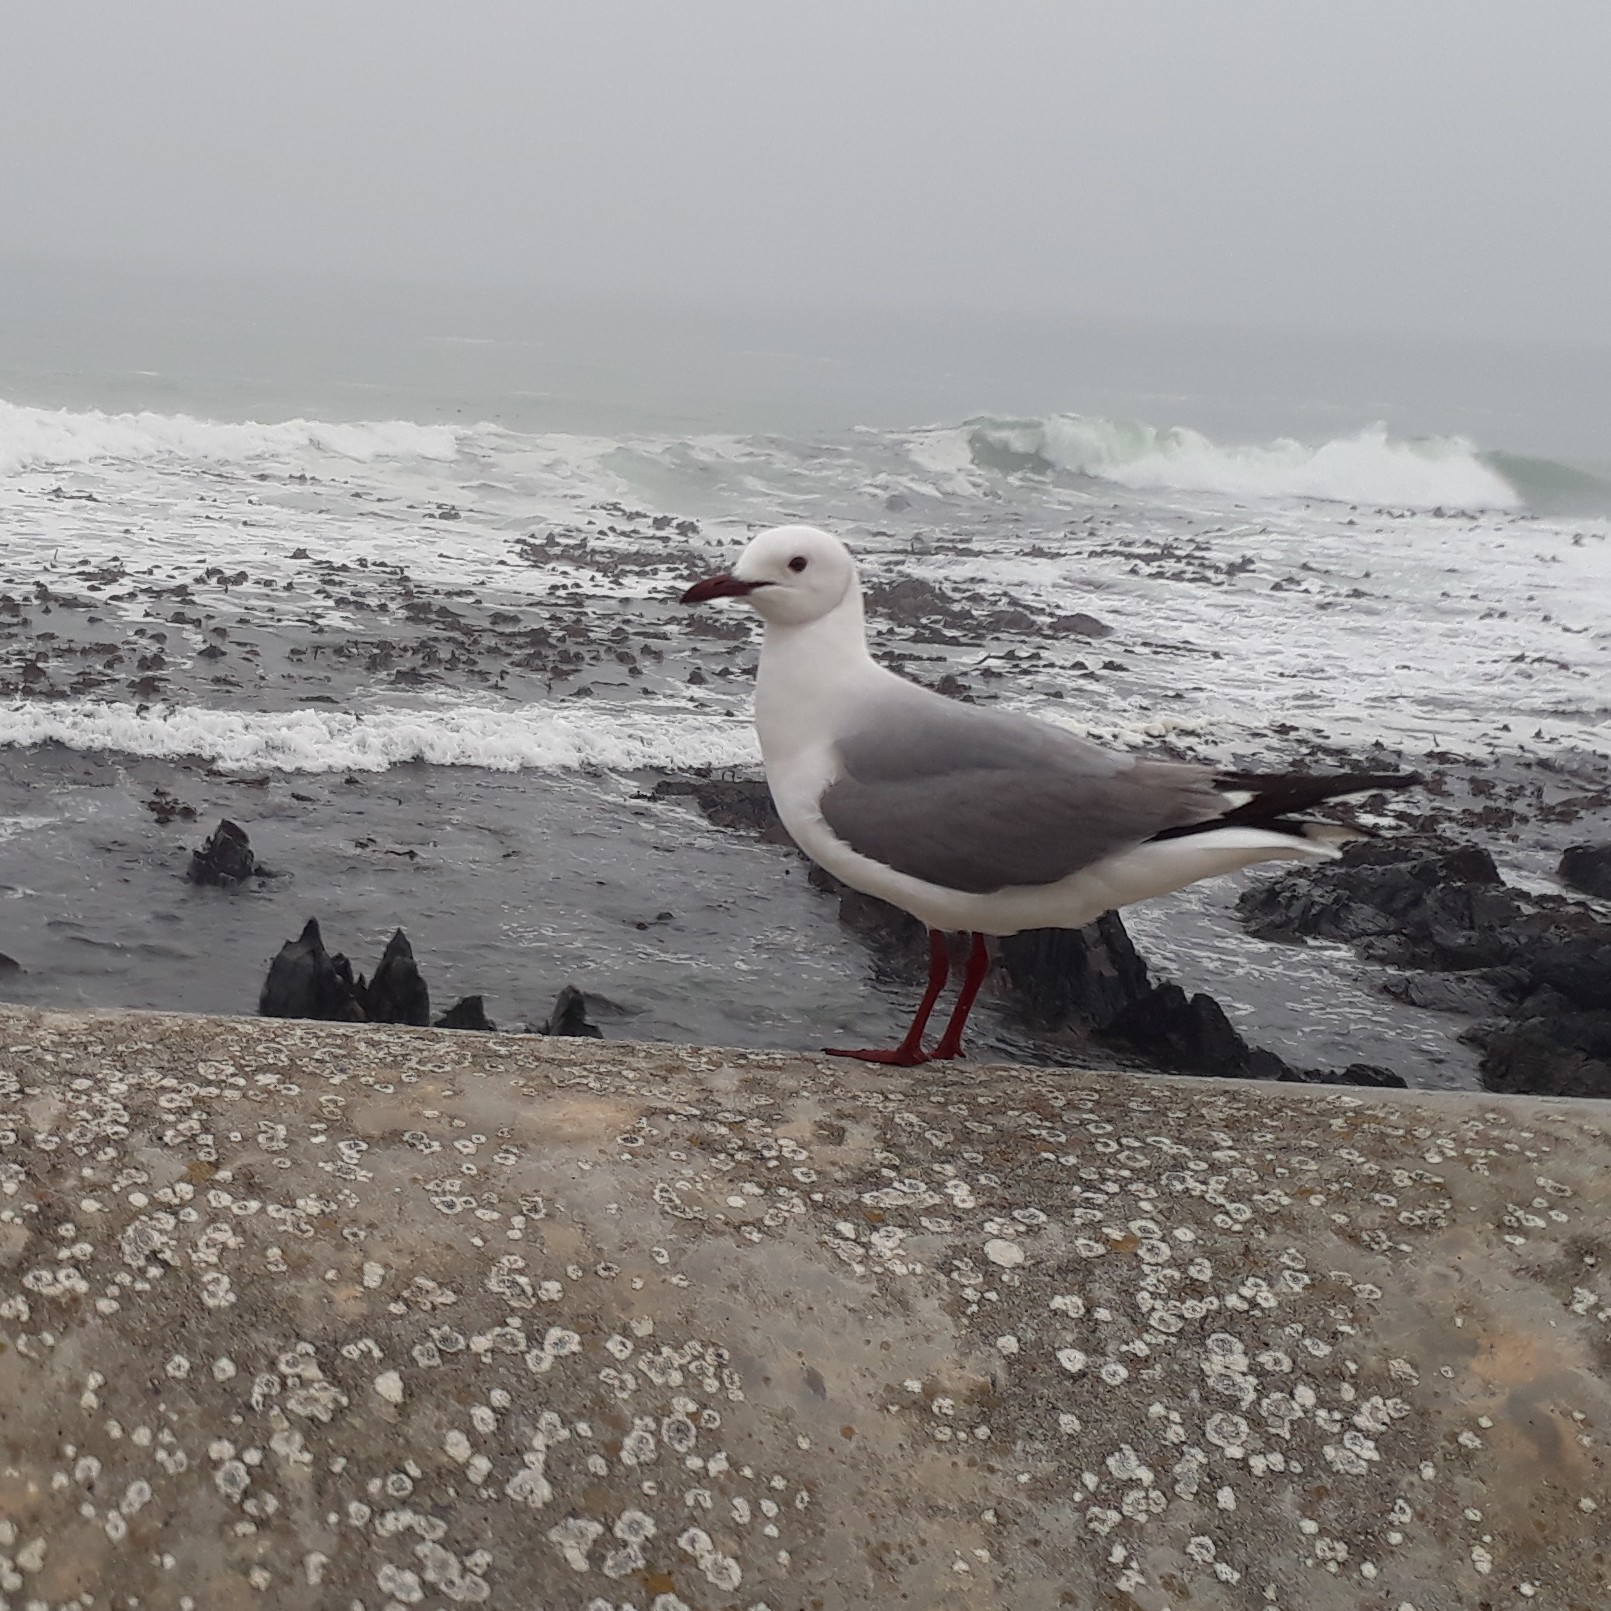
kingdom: Animalia
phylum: Chordata
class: Aves
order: Charadriiformes
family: Laridae
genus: Chroicocephalus
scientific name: Chroicocephalus hartlaubii
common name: Hartlaub's gull
